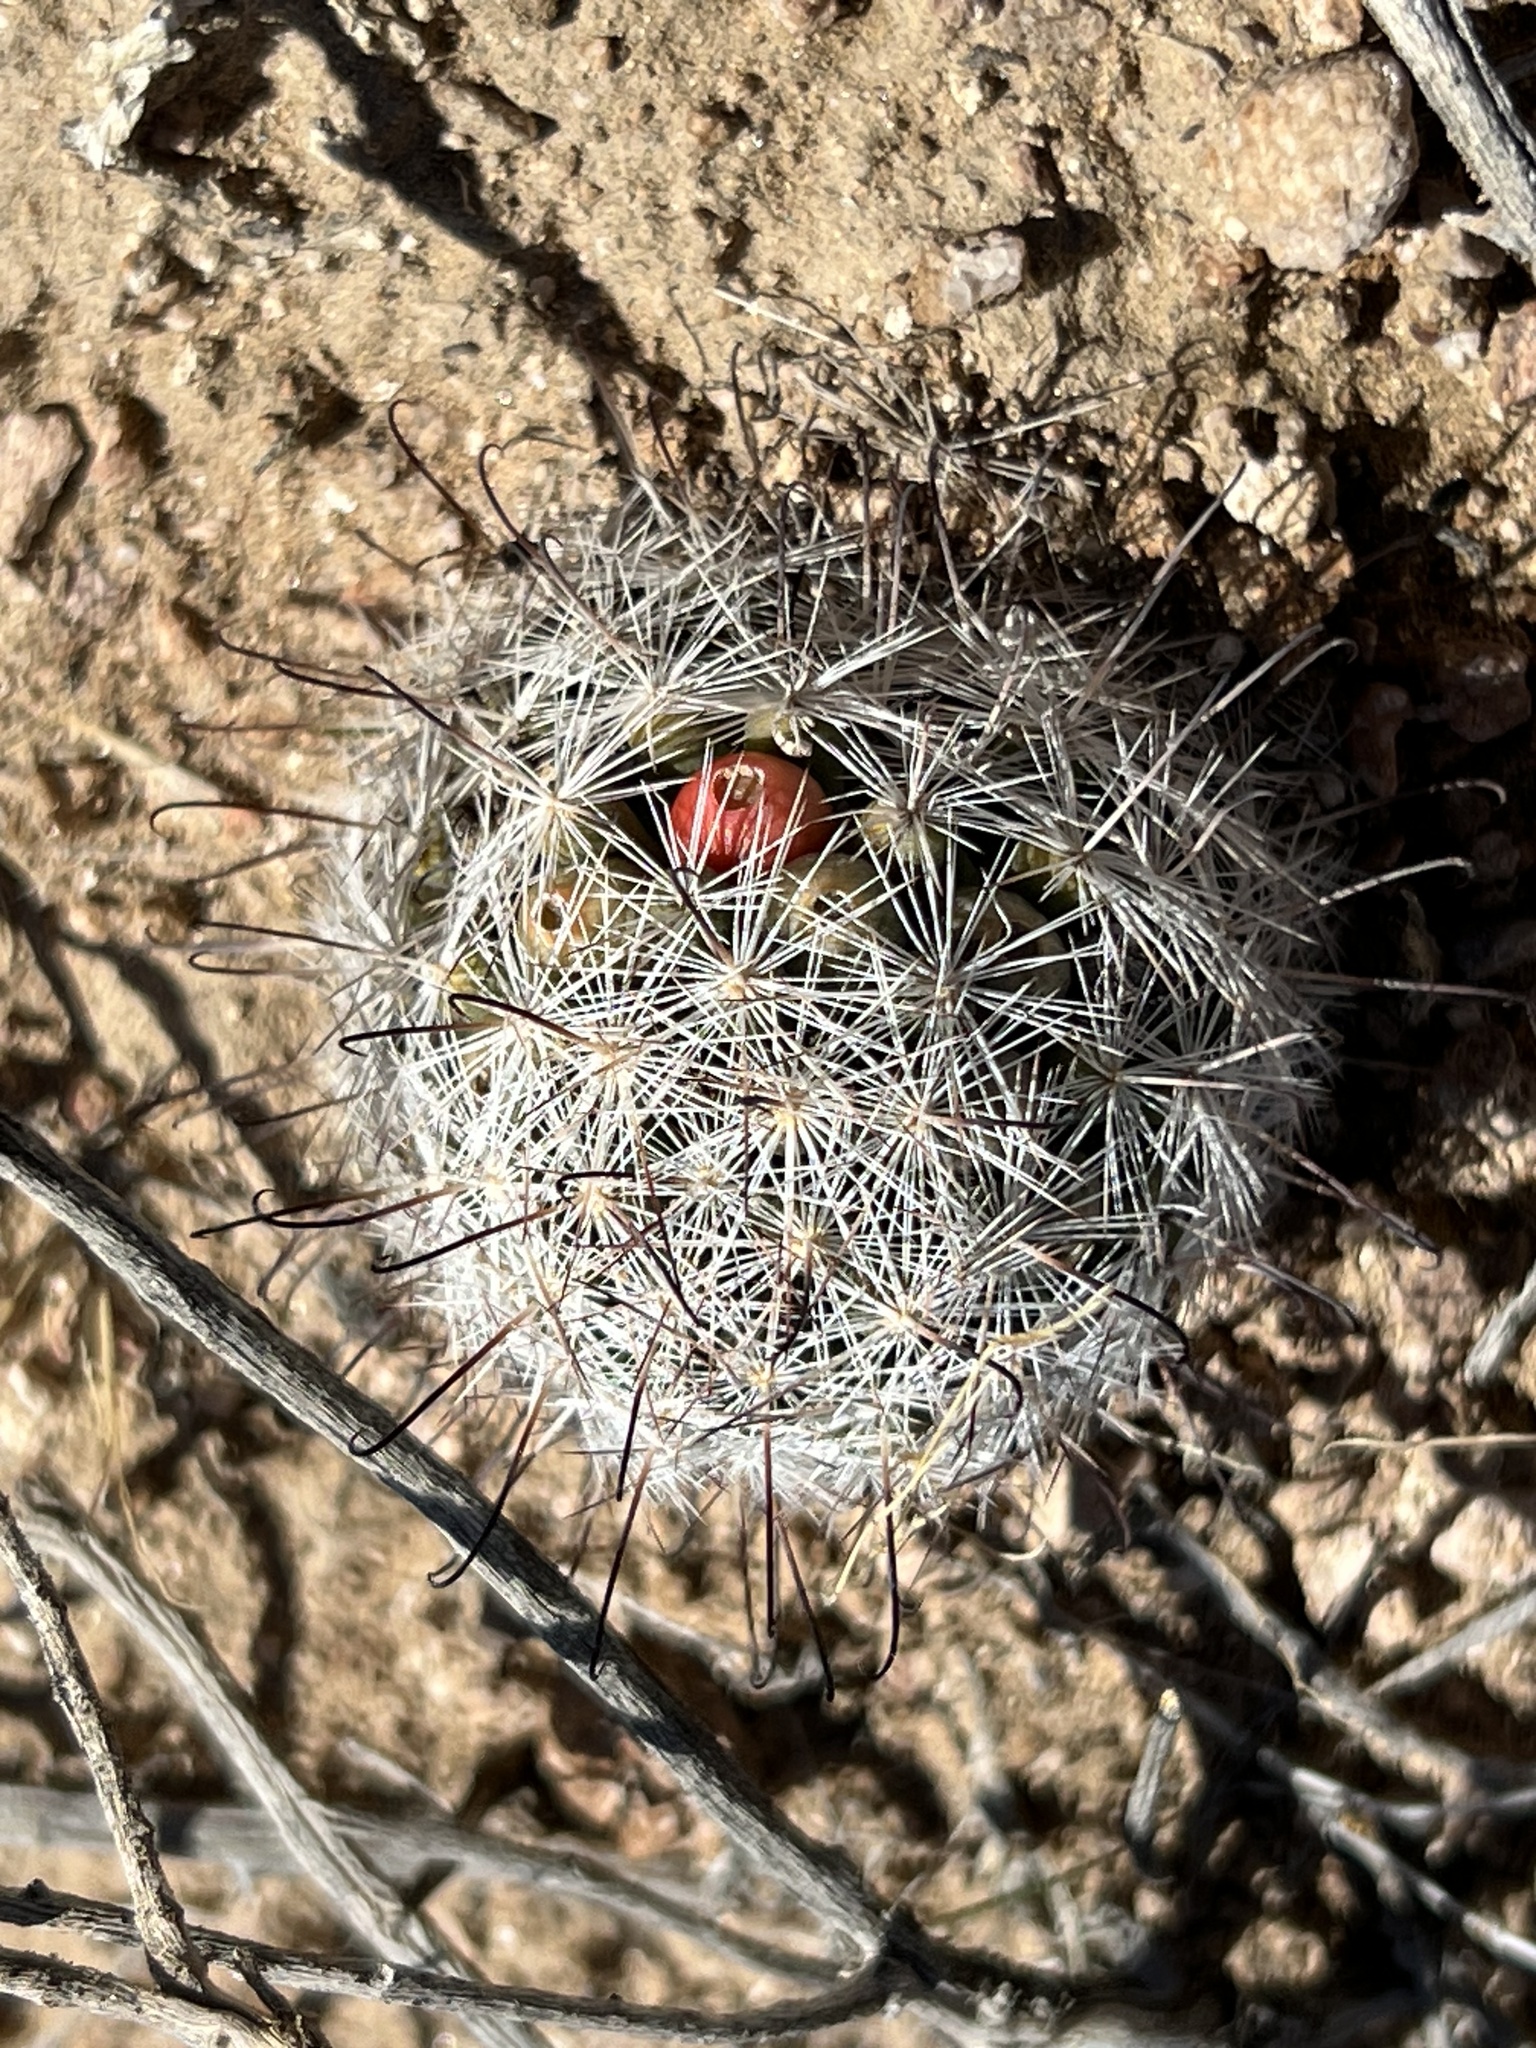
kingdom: Plantae
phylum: Tracheophyta
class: Magnoliopsida
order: Caryophyllales
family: Cactaceae
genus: Cochemiea
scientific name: Cochemiea tetrancistra
